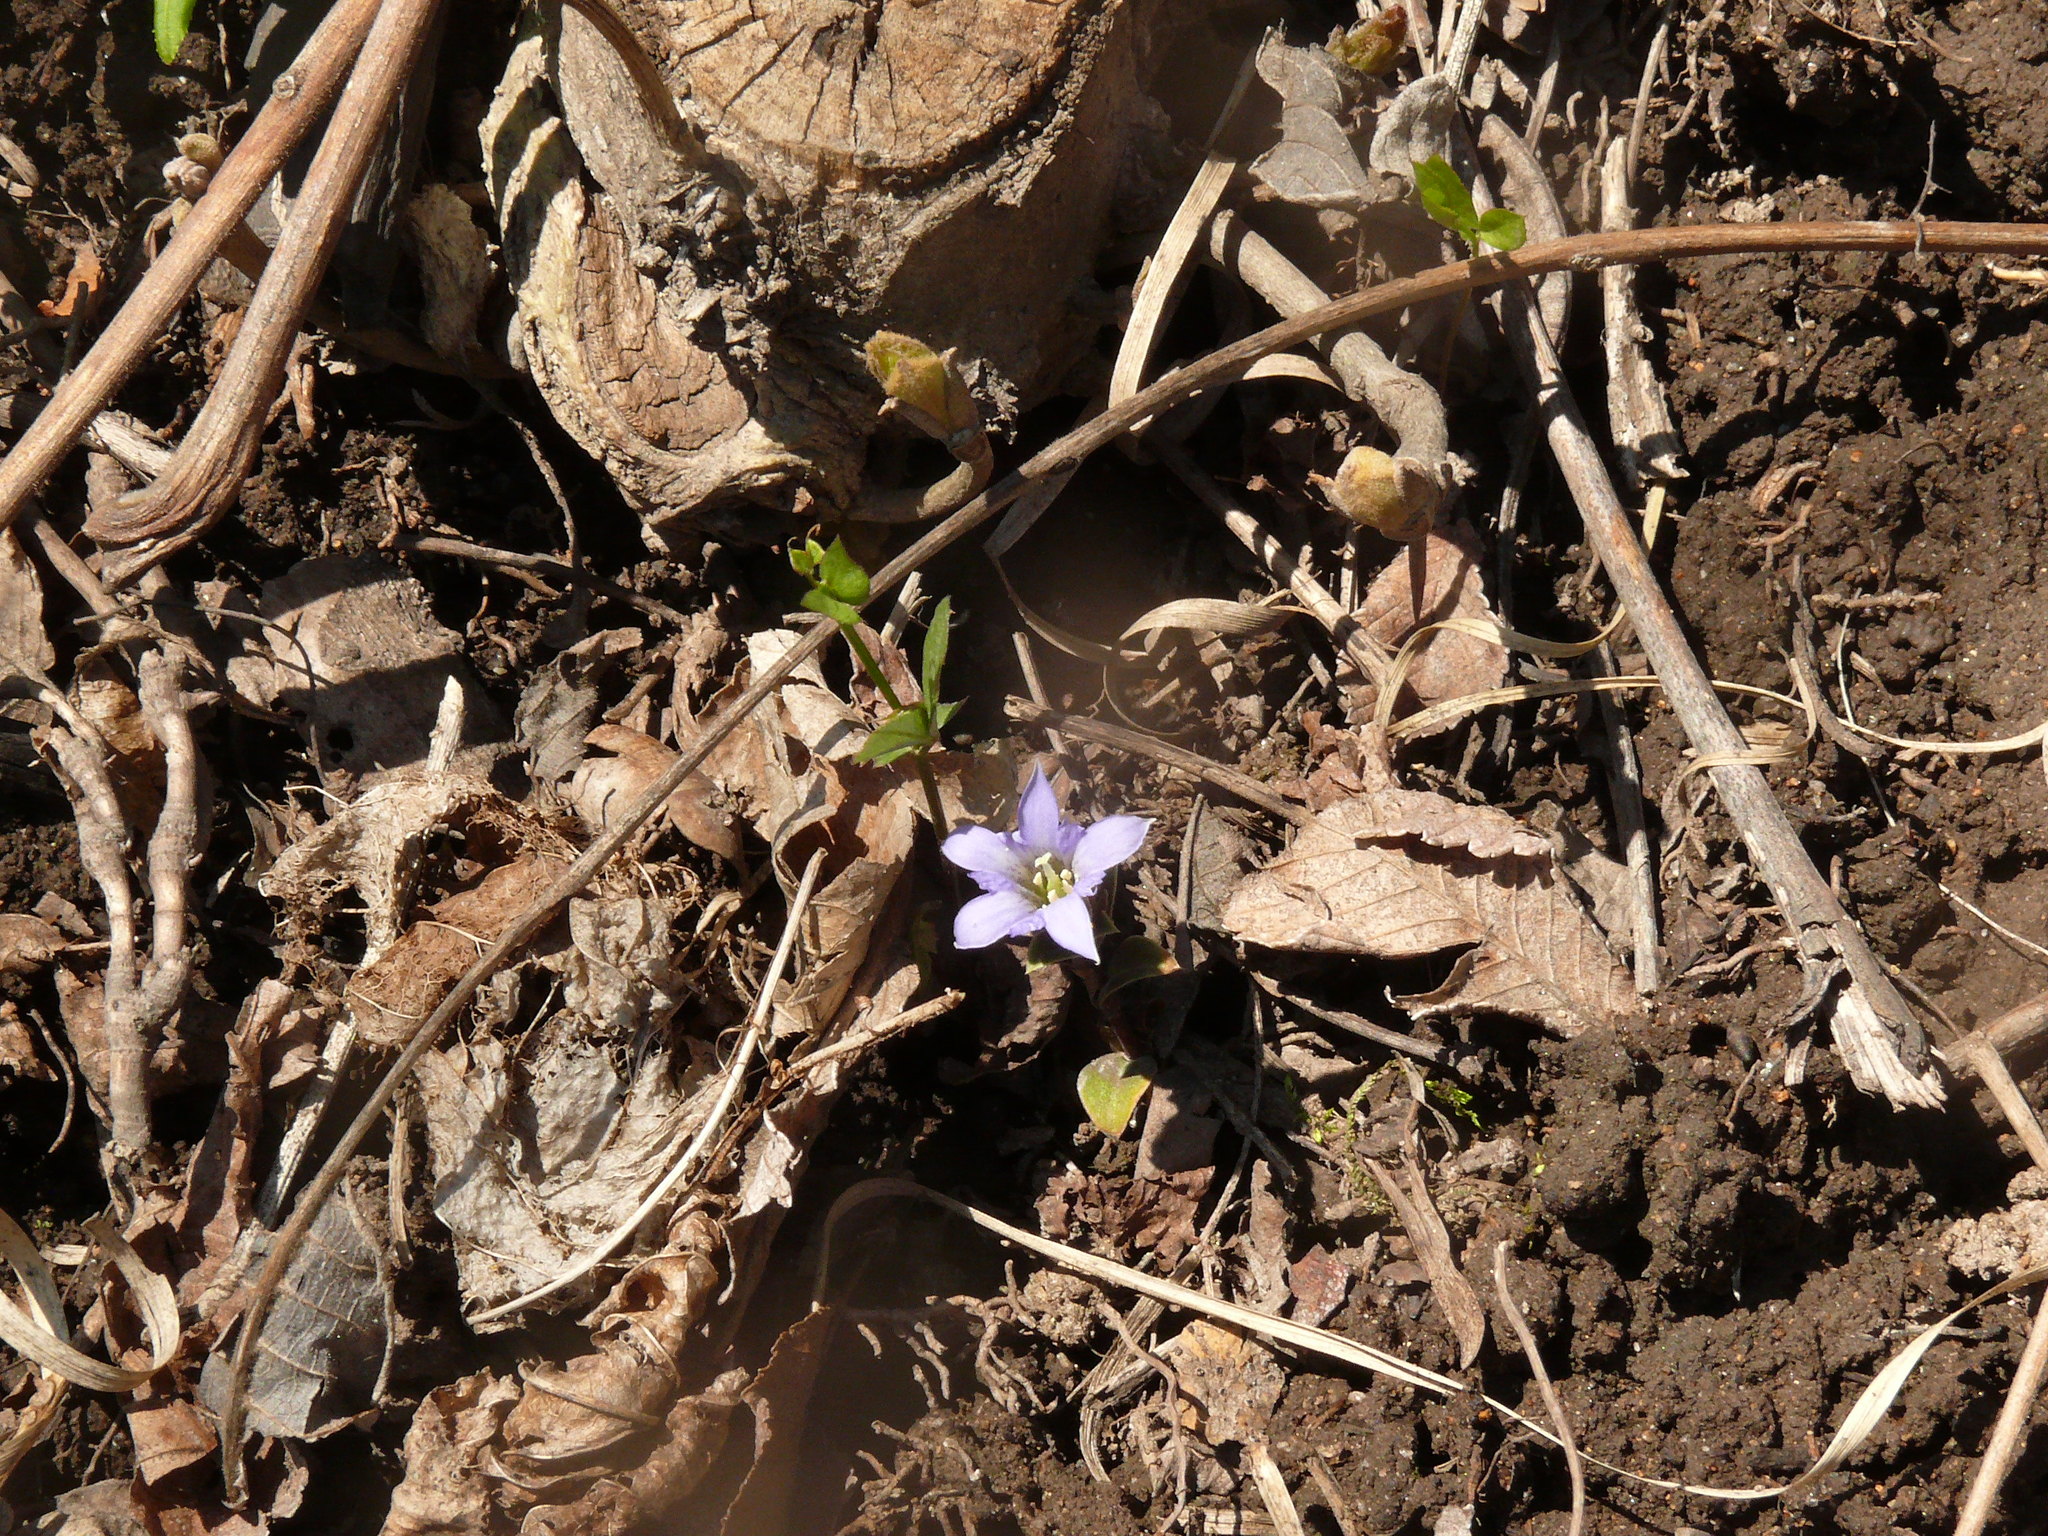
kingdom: Plantae
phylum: Tracheophyta
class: Magnoliopsida
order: Gentianales
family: Gentianaceae
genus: Gentiana
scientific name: Gentiana zollingeri
